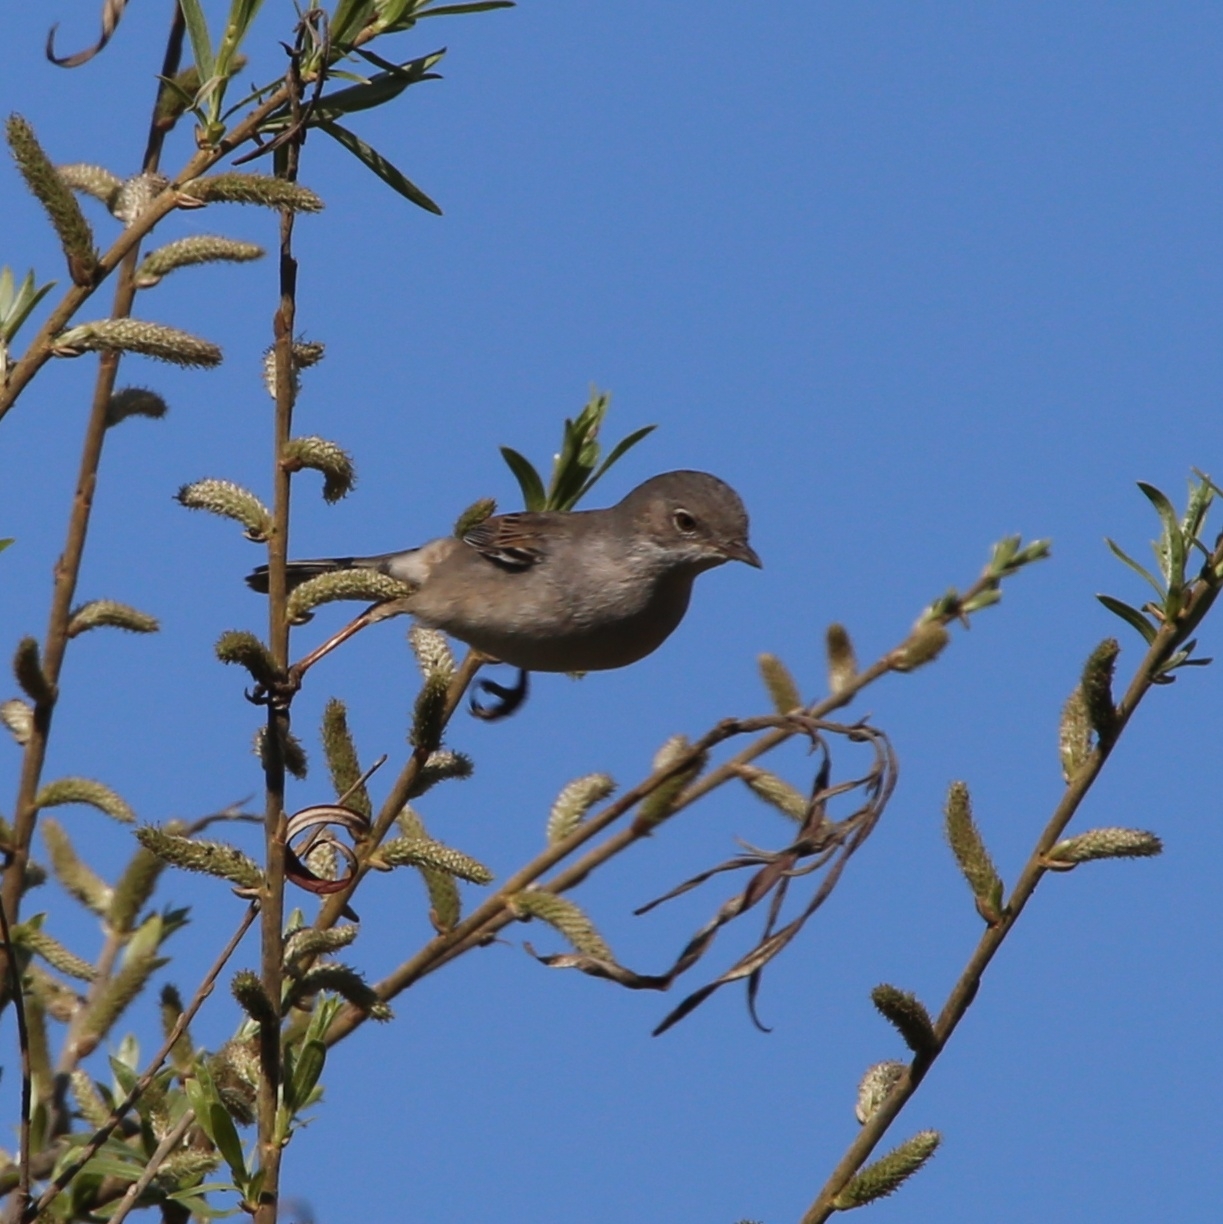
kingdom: Animalia
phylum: Chordata
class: Aves
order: Passeriformes
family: Sylviidae
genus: Sylvia
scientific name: Sylvia communis
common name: Common whitethroat
